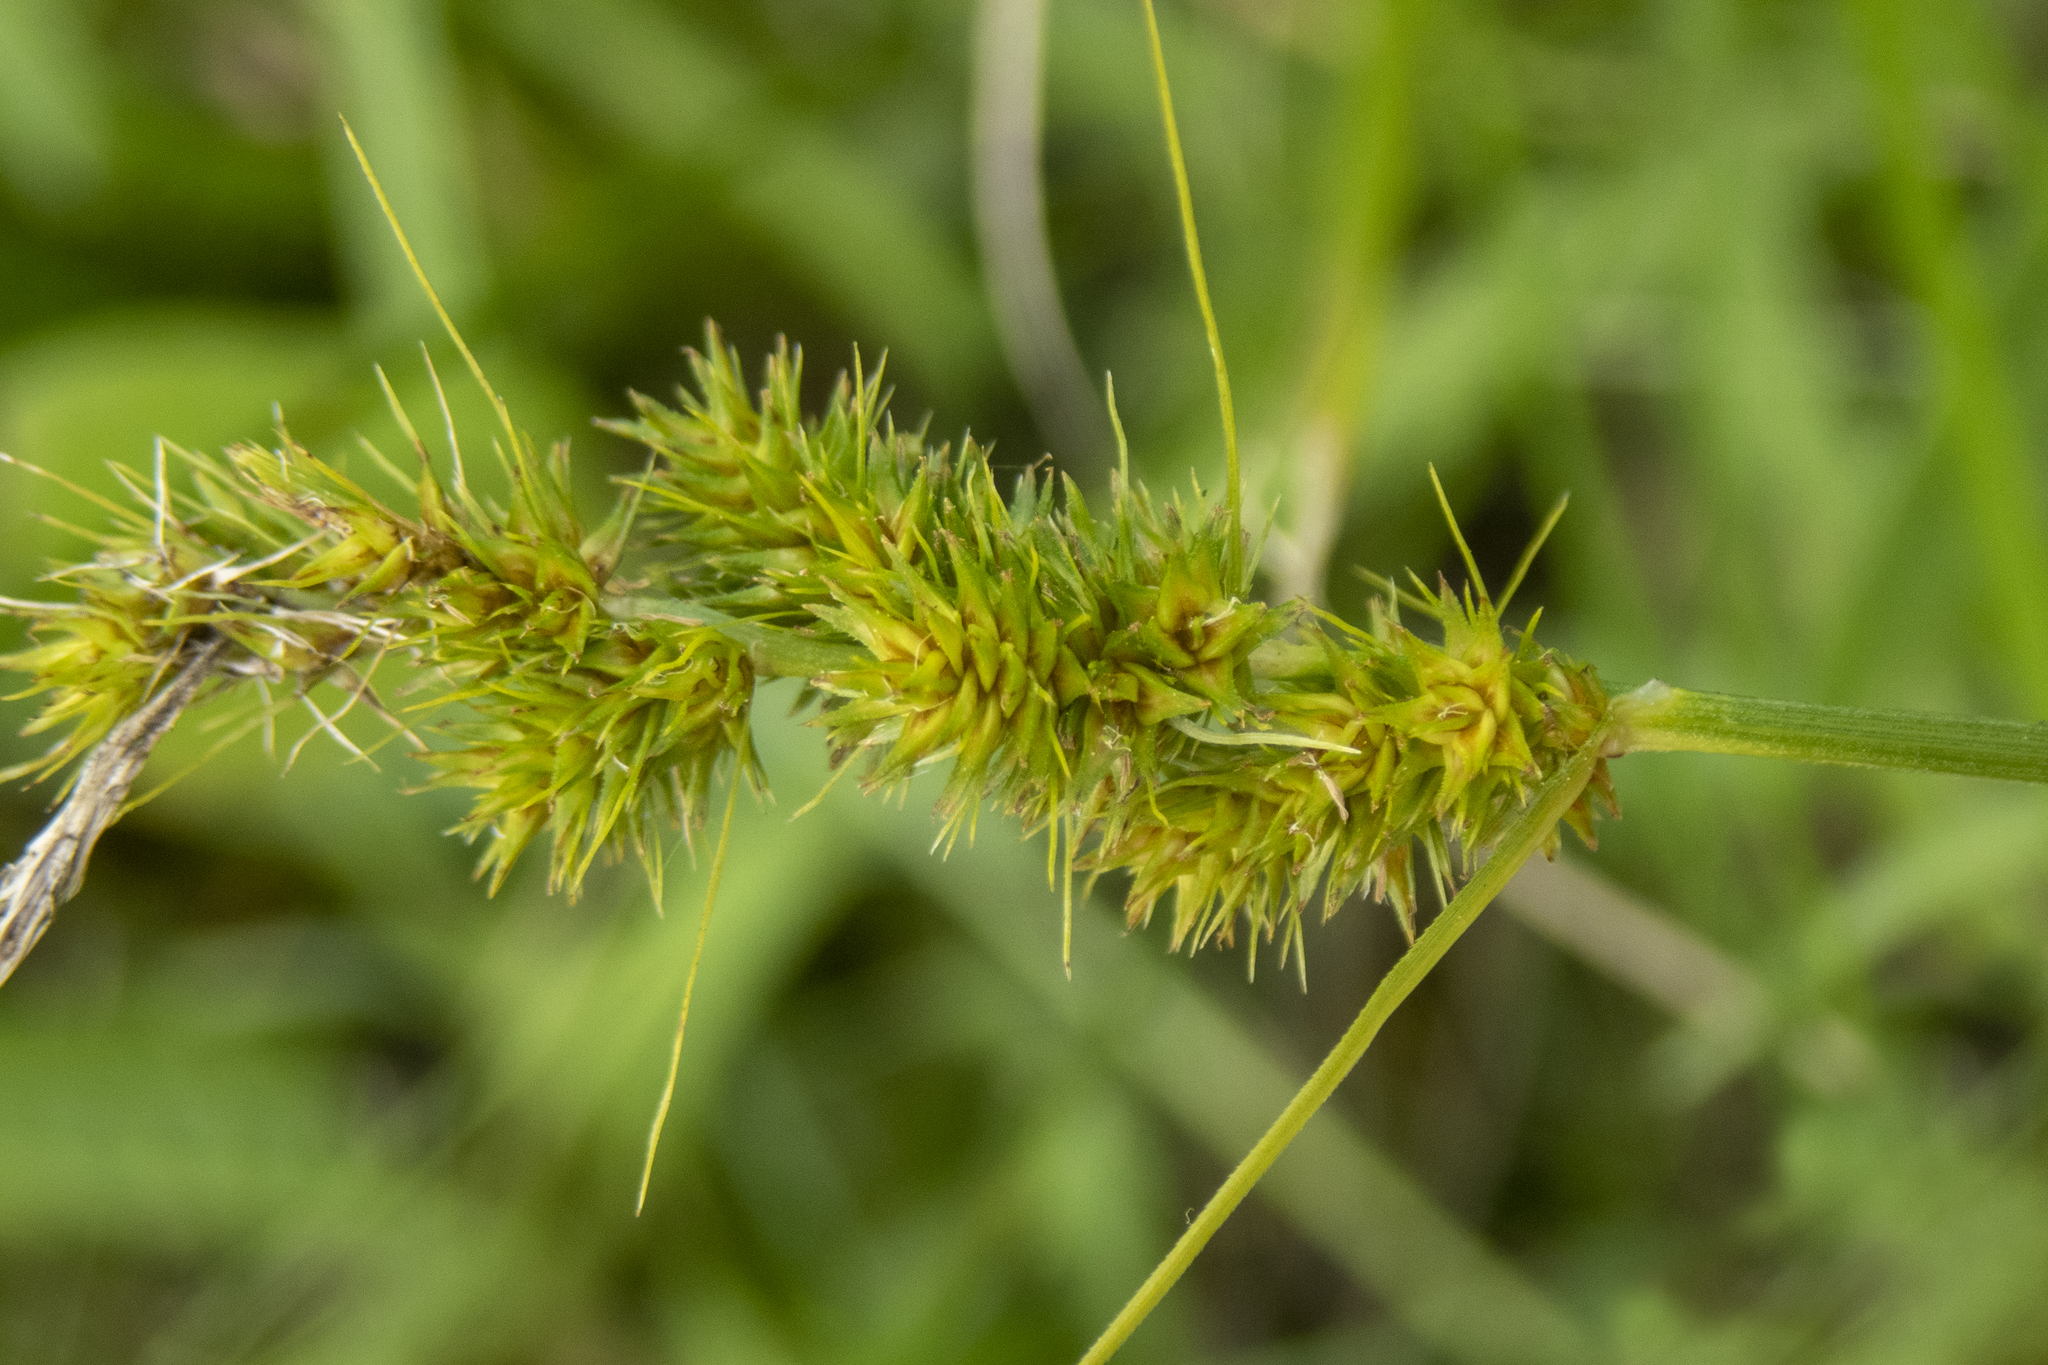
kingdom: Plantae
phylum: Tracheophyta
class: Liliopsida
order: Poales
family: Cyperaceae
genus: Carex
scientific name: Carex vulpinoidea
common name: American fox-sedge
